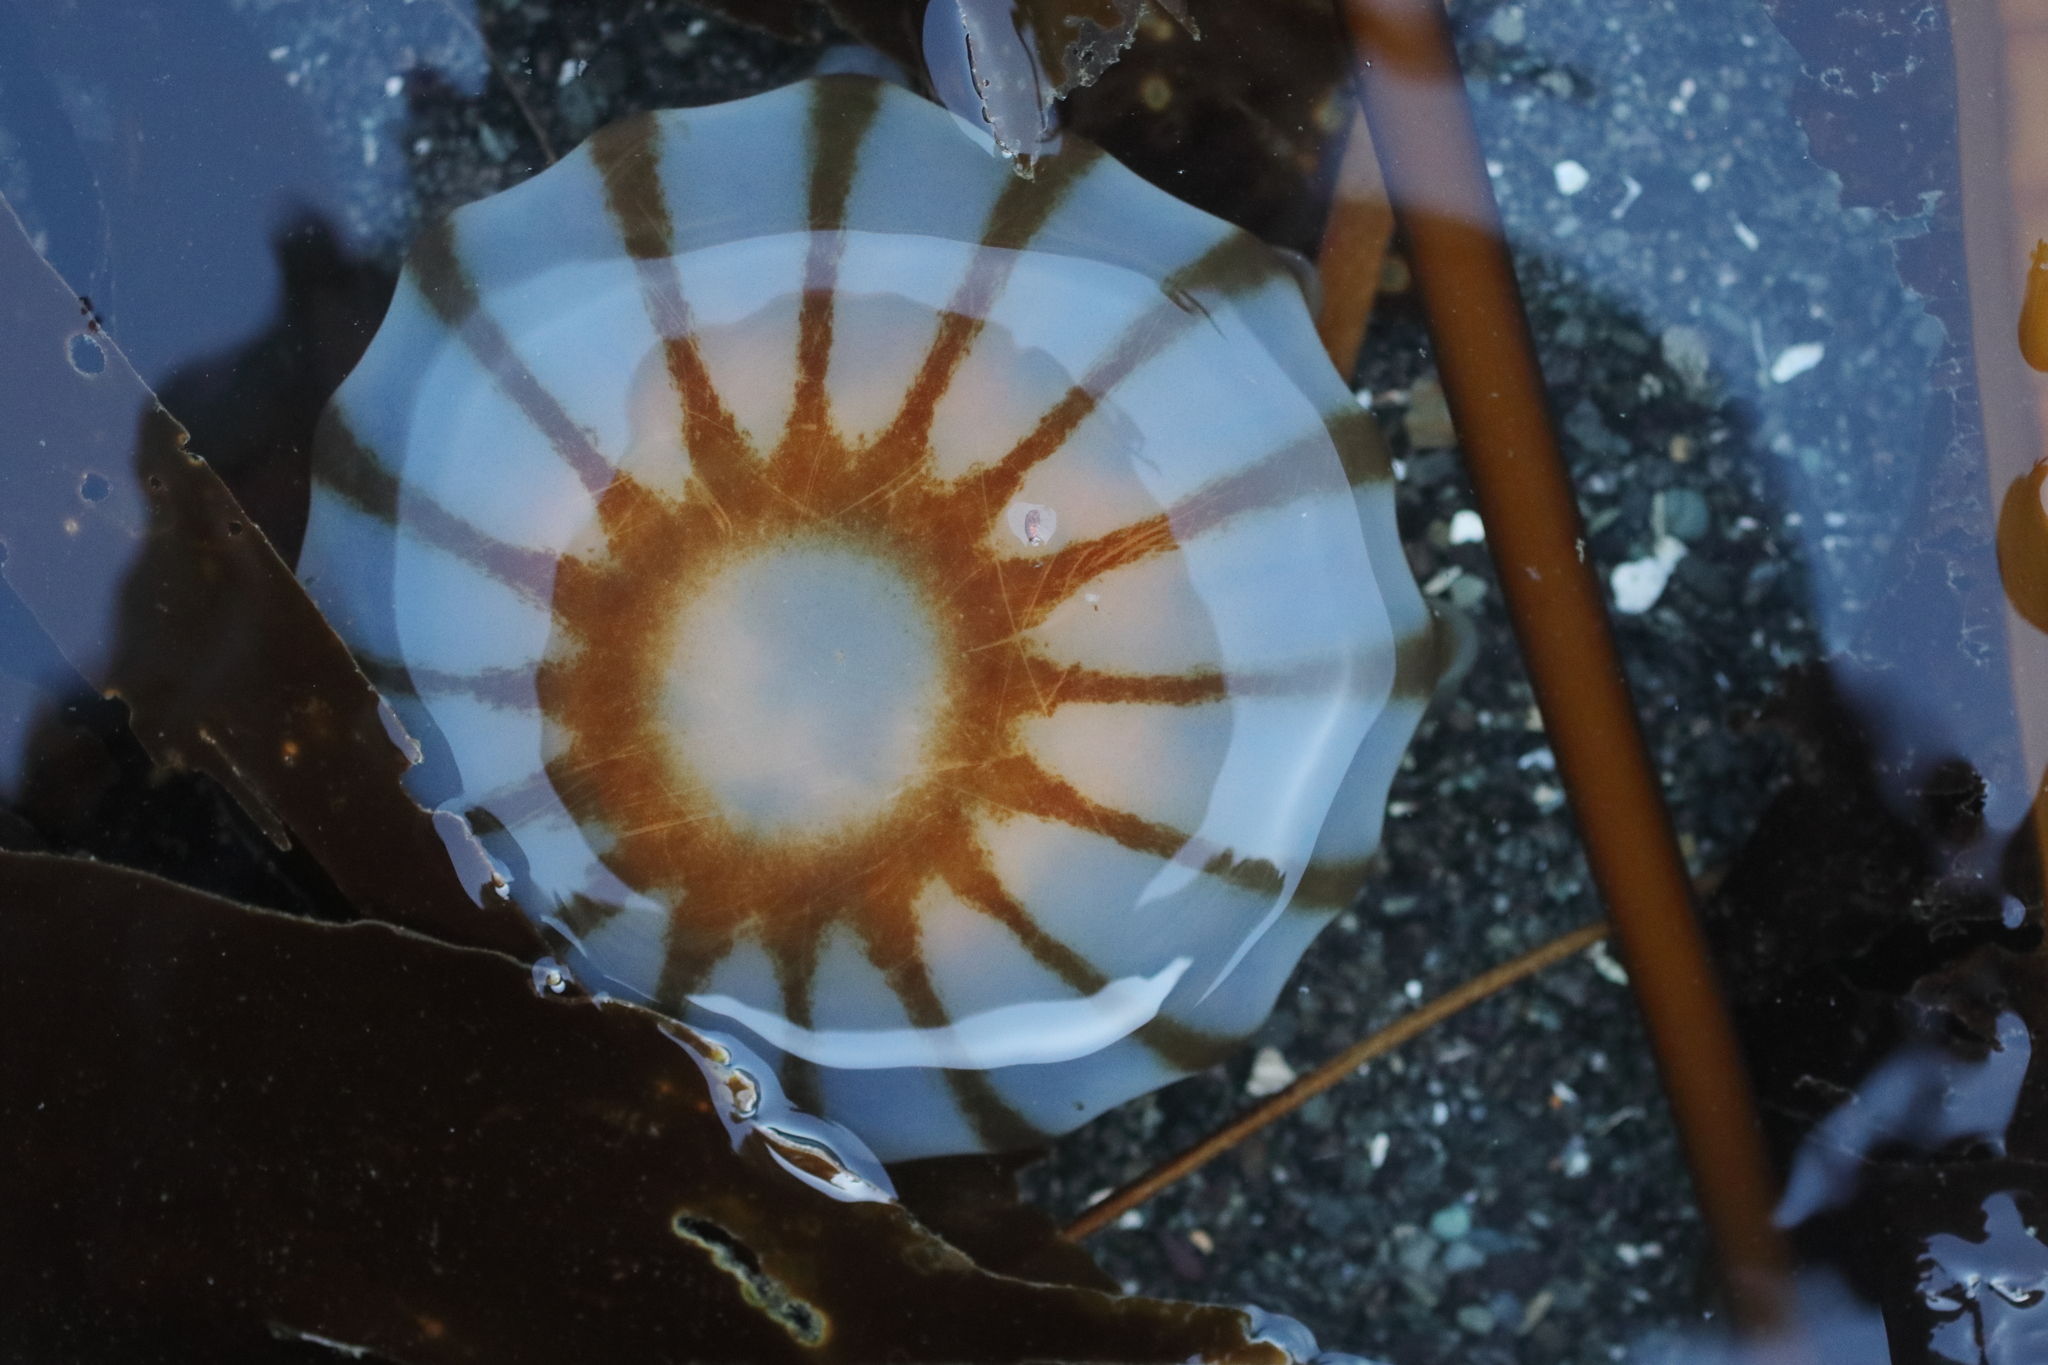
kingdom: Animalia
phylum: Cnidaria
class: Scyphozoa
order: Semaeostomeae
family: Pelagiidae
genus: Chrysaora
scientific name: Chrysaora melanaster
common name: Northern sea nettle
